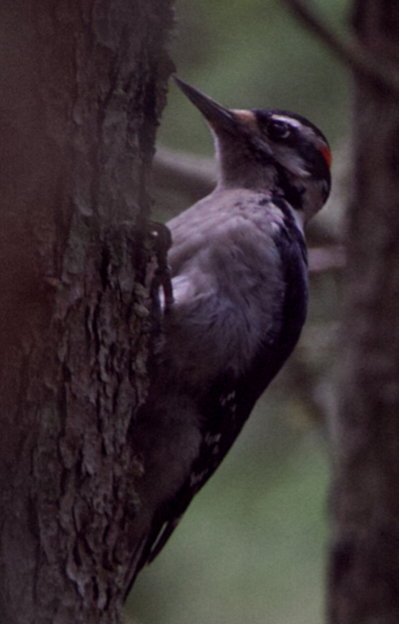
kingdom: Animalia
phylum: Chordata
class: Aves
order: Piciformes
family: Picidae
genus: Leuconotopicus
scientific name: Leuconotopicus villosus
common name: Hairy woodpecker
